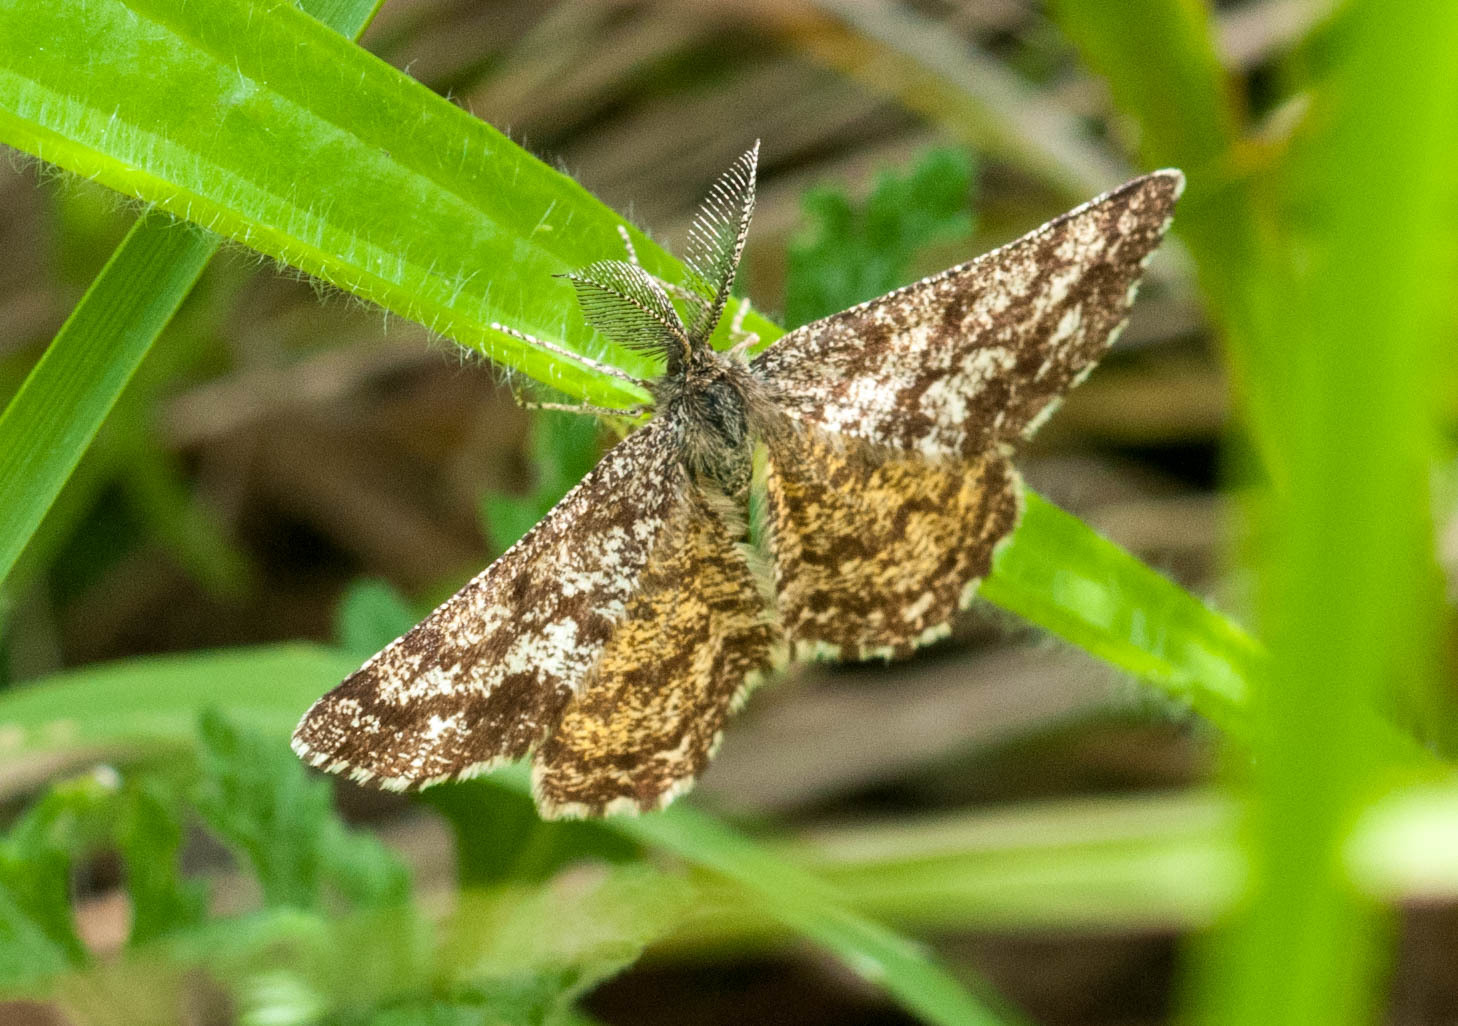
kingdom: Animalia
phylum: Arthropoda
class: Insecta
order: Lepidoptera
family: Geometridae
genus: Ematurga
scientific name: Ematurga atomaria
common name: Common heath
